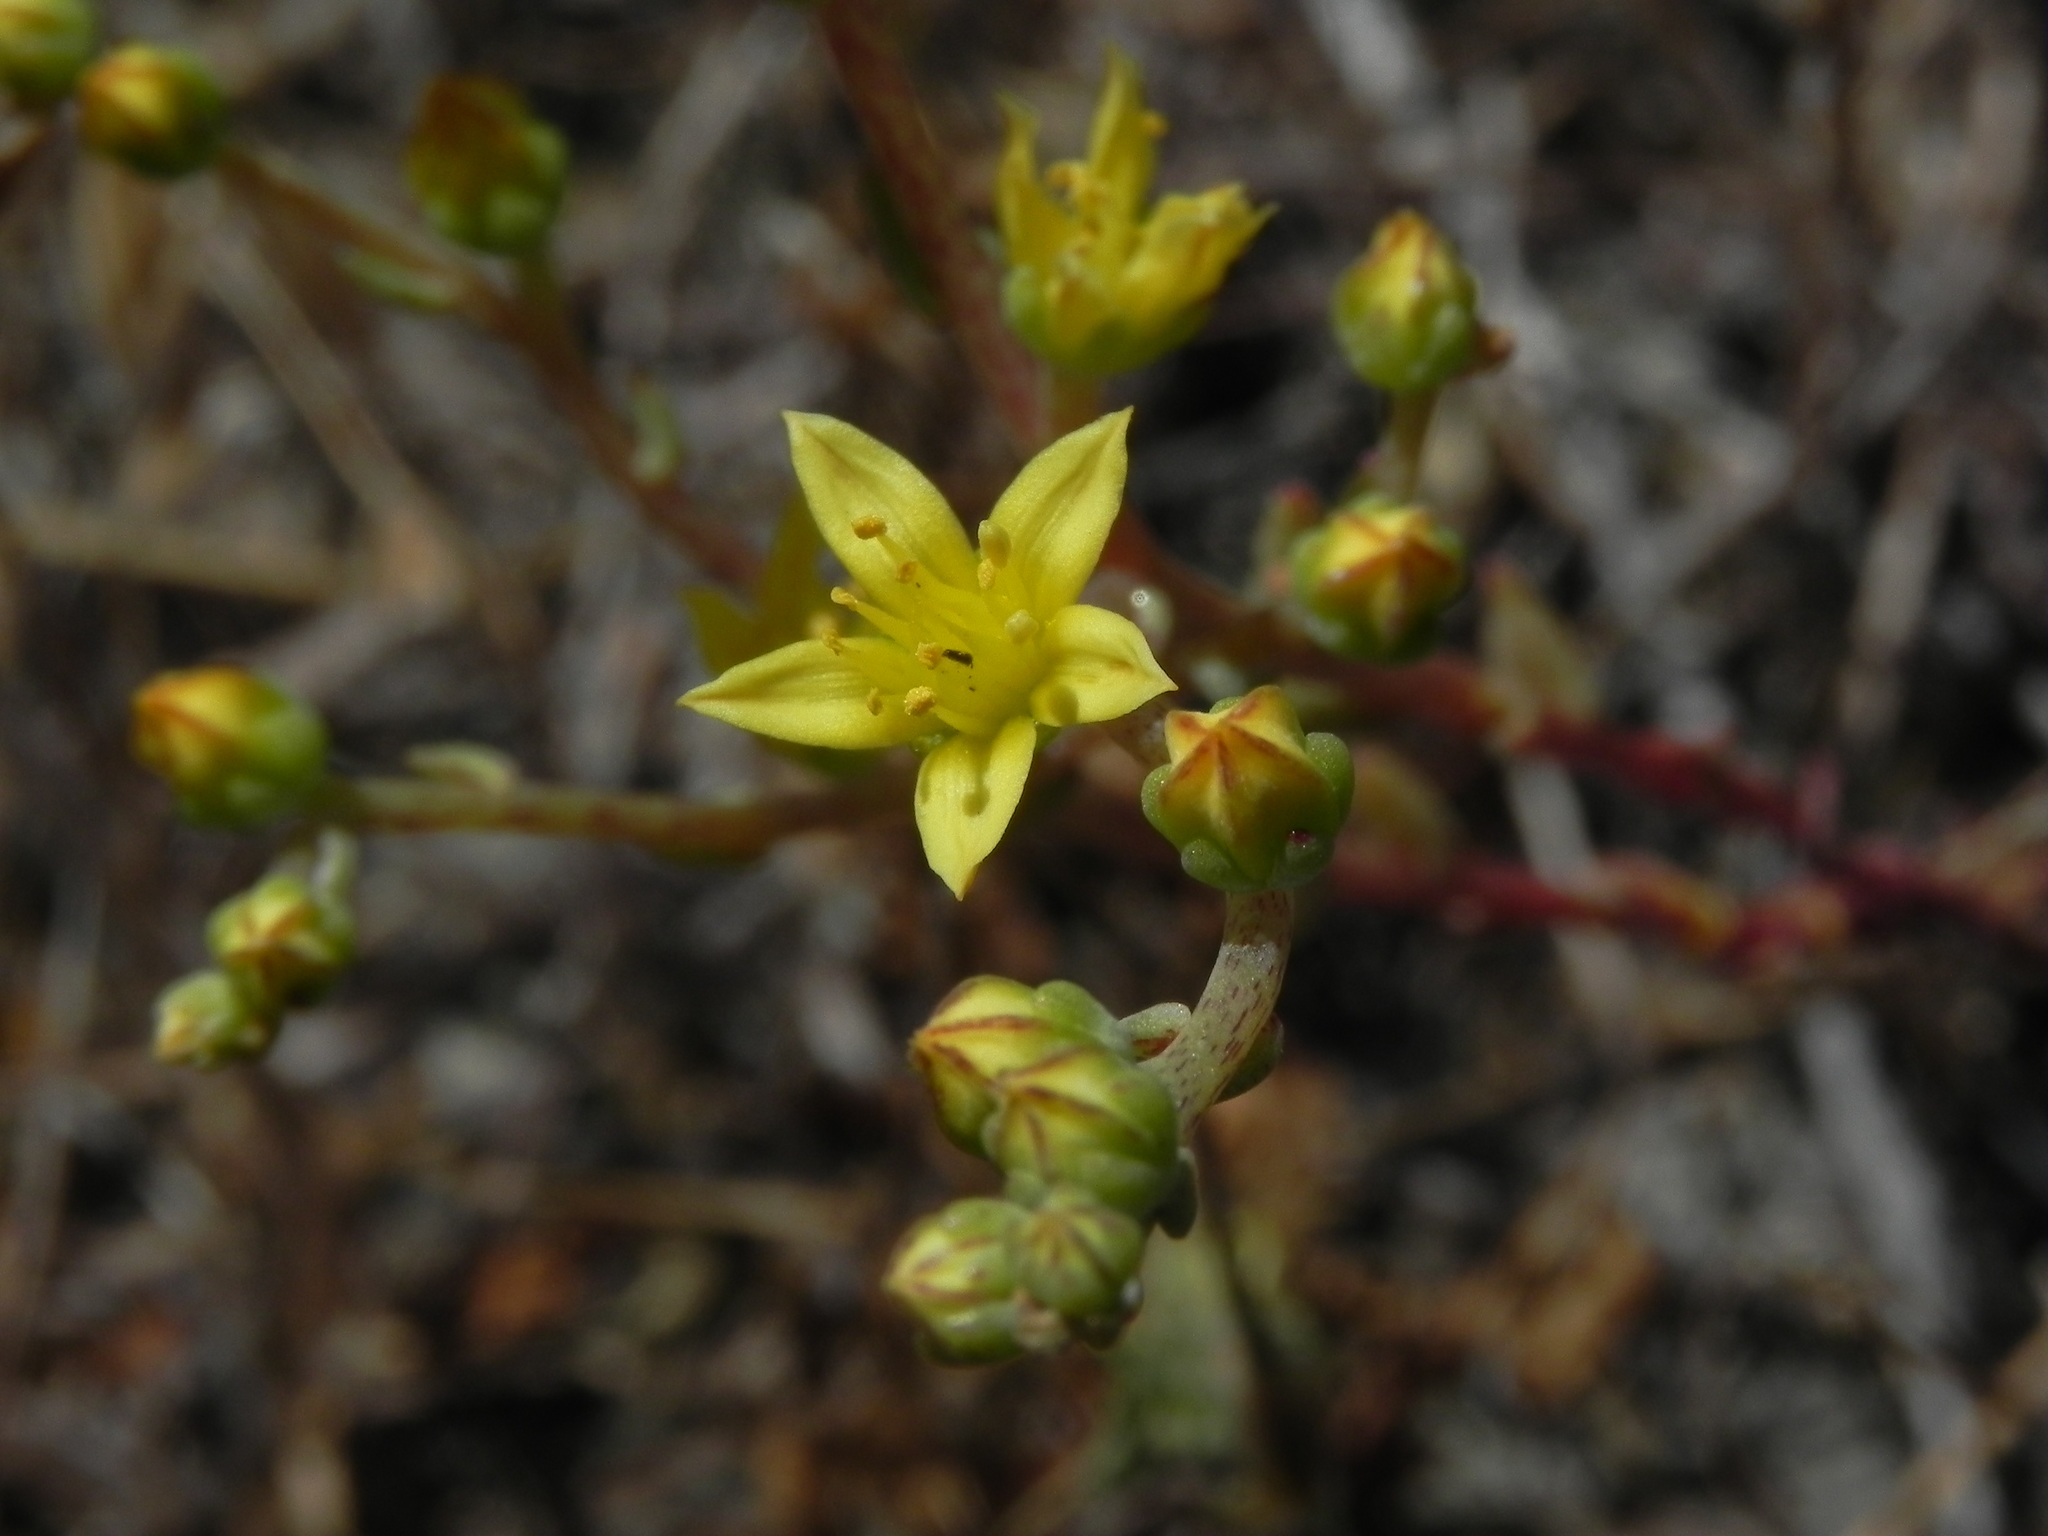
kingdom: Plantae
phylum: Tracheophyta
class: Magnoliopsida
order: Saxifragales
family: Crassulaceae
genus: Dudleya
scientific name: Dudleya variegata
